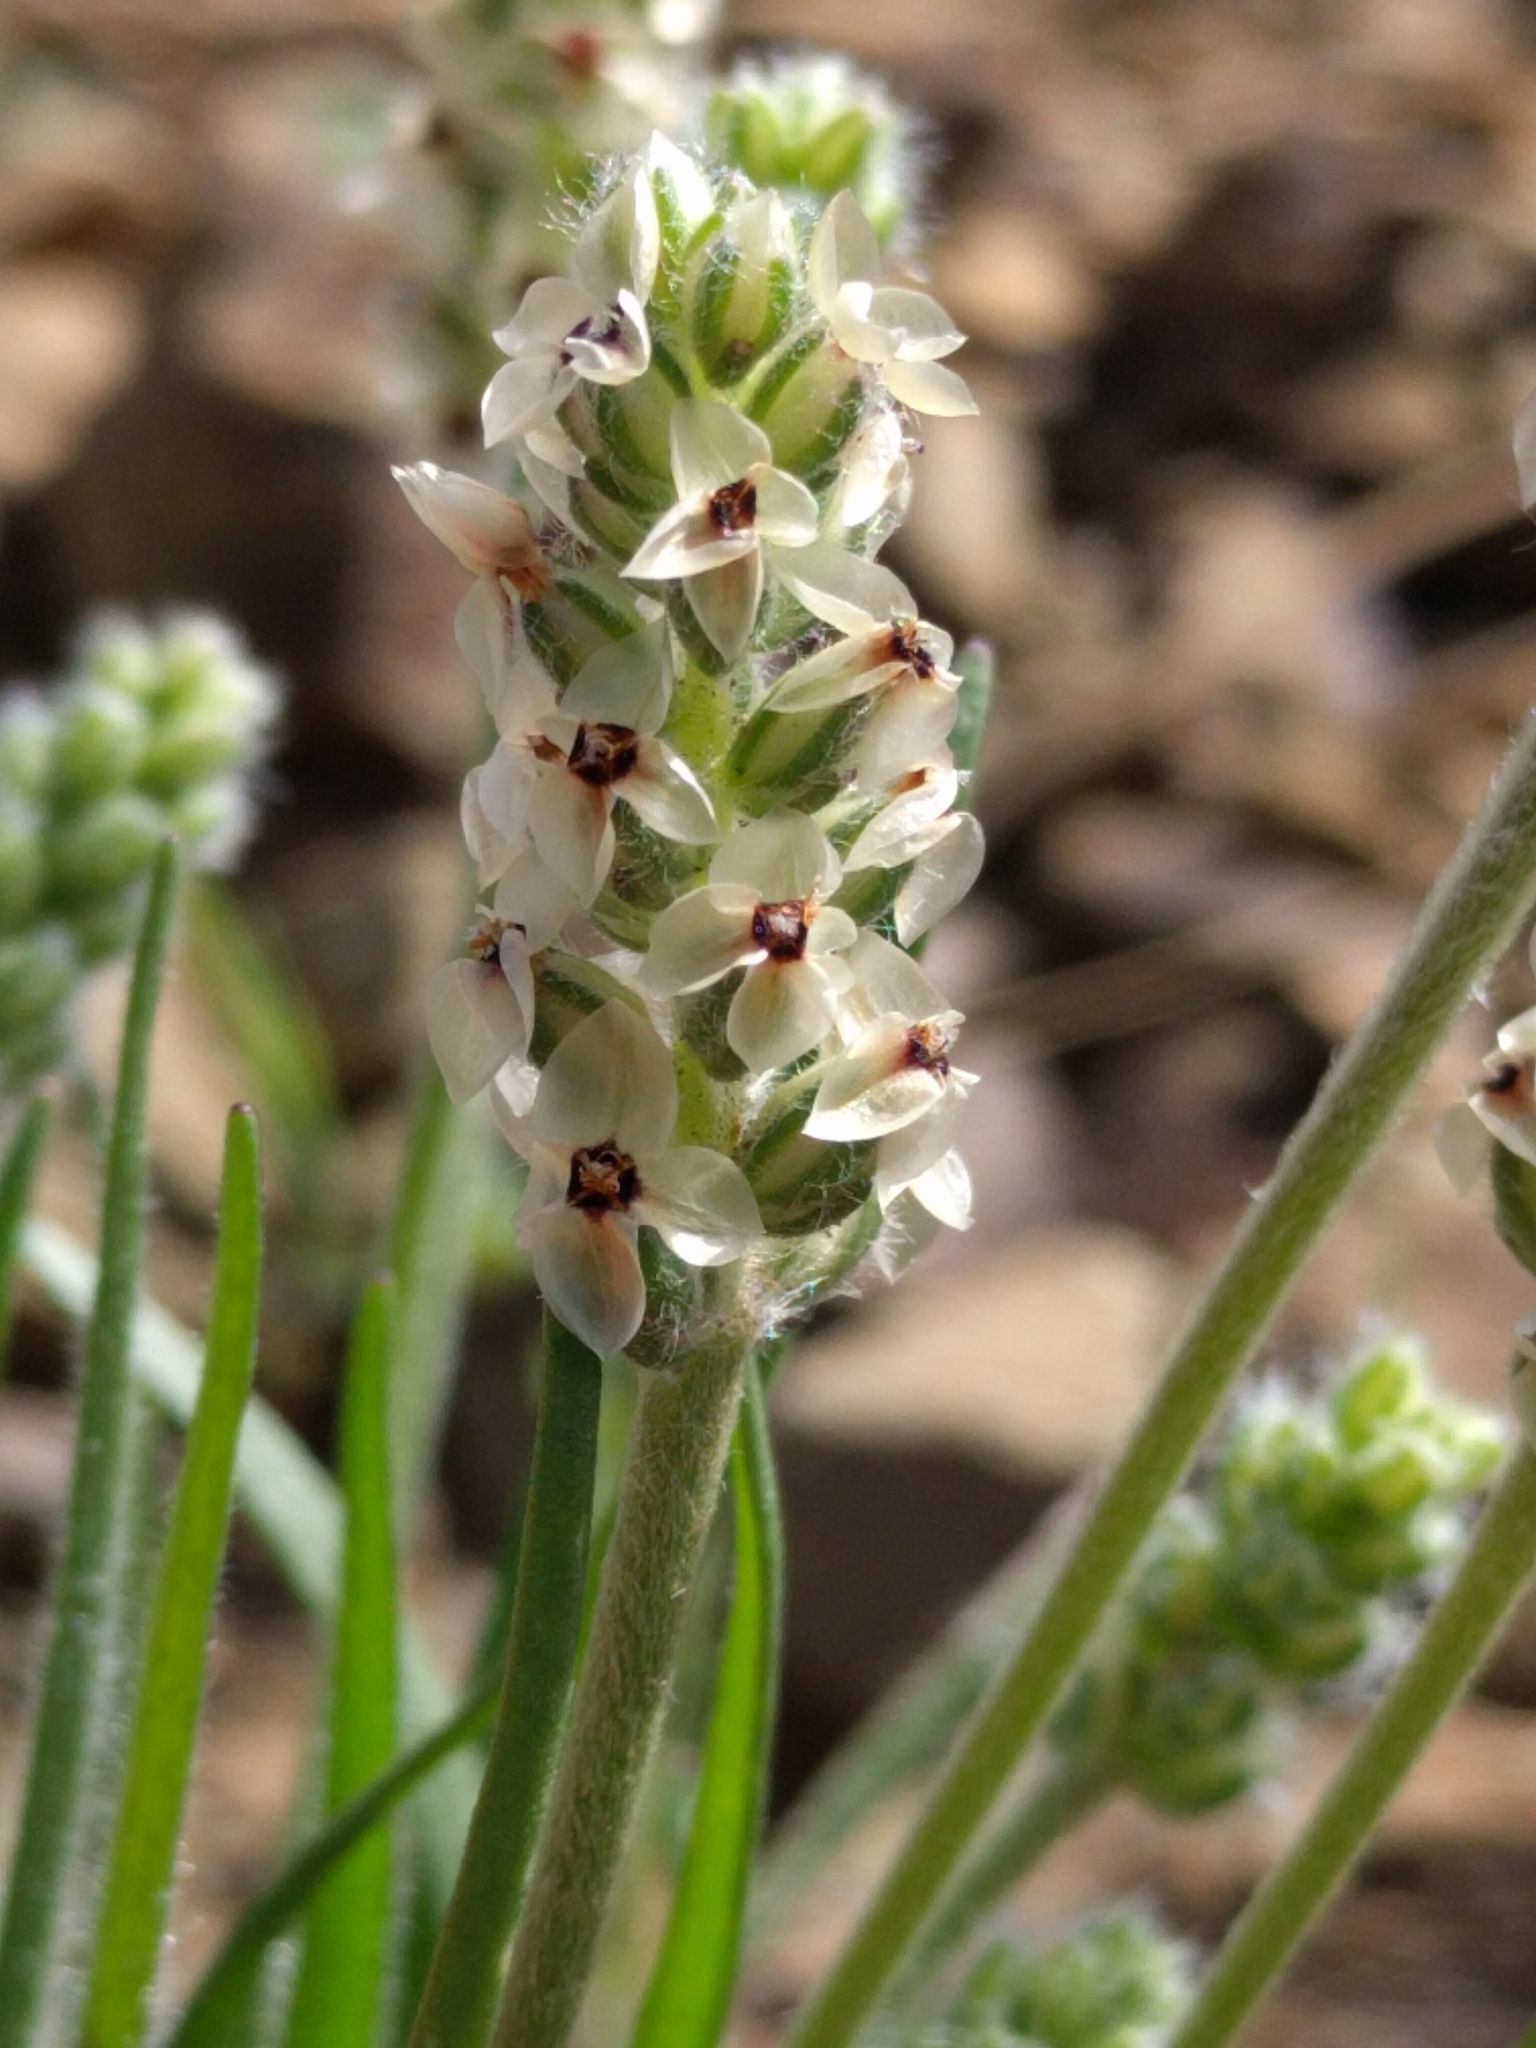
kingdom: Plantae
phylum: Tracheophyta
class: Magnoliopsida
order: Lamiales
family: Plantaginaceae
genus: Plantago
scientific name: Plantago erecta
